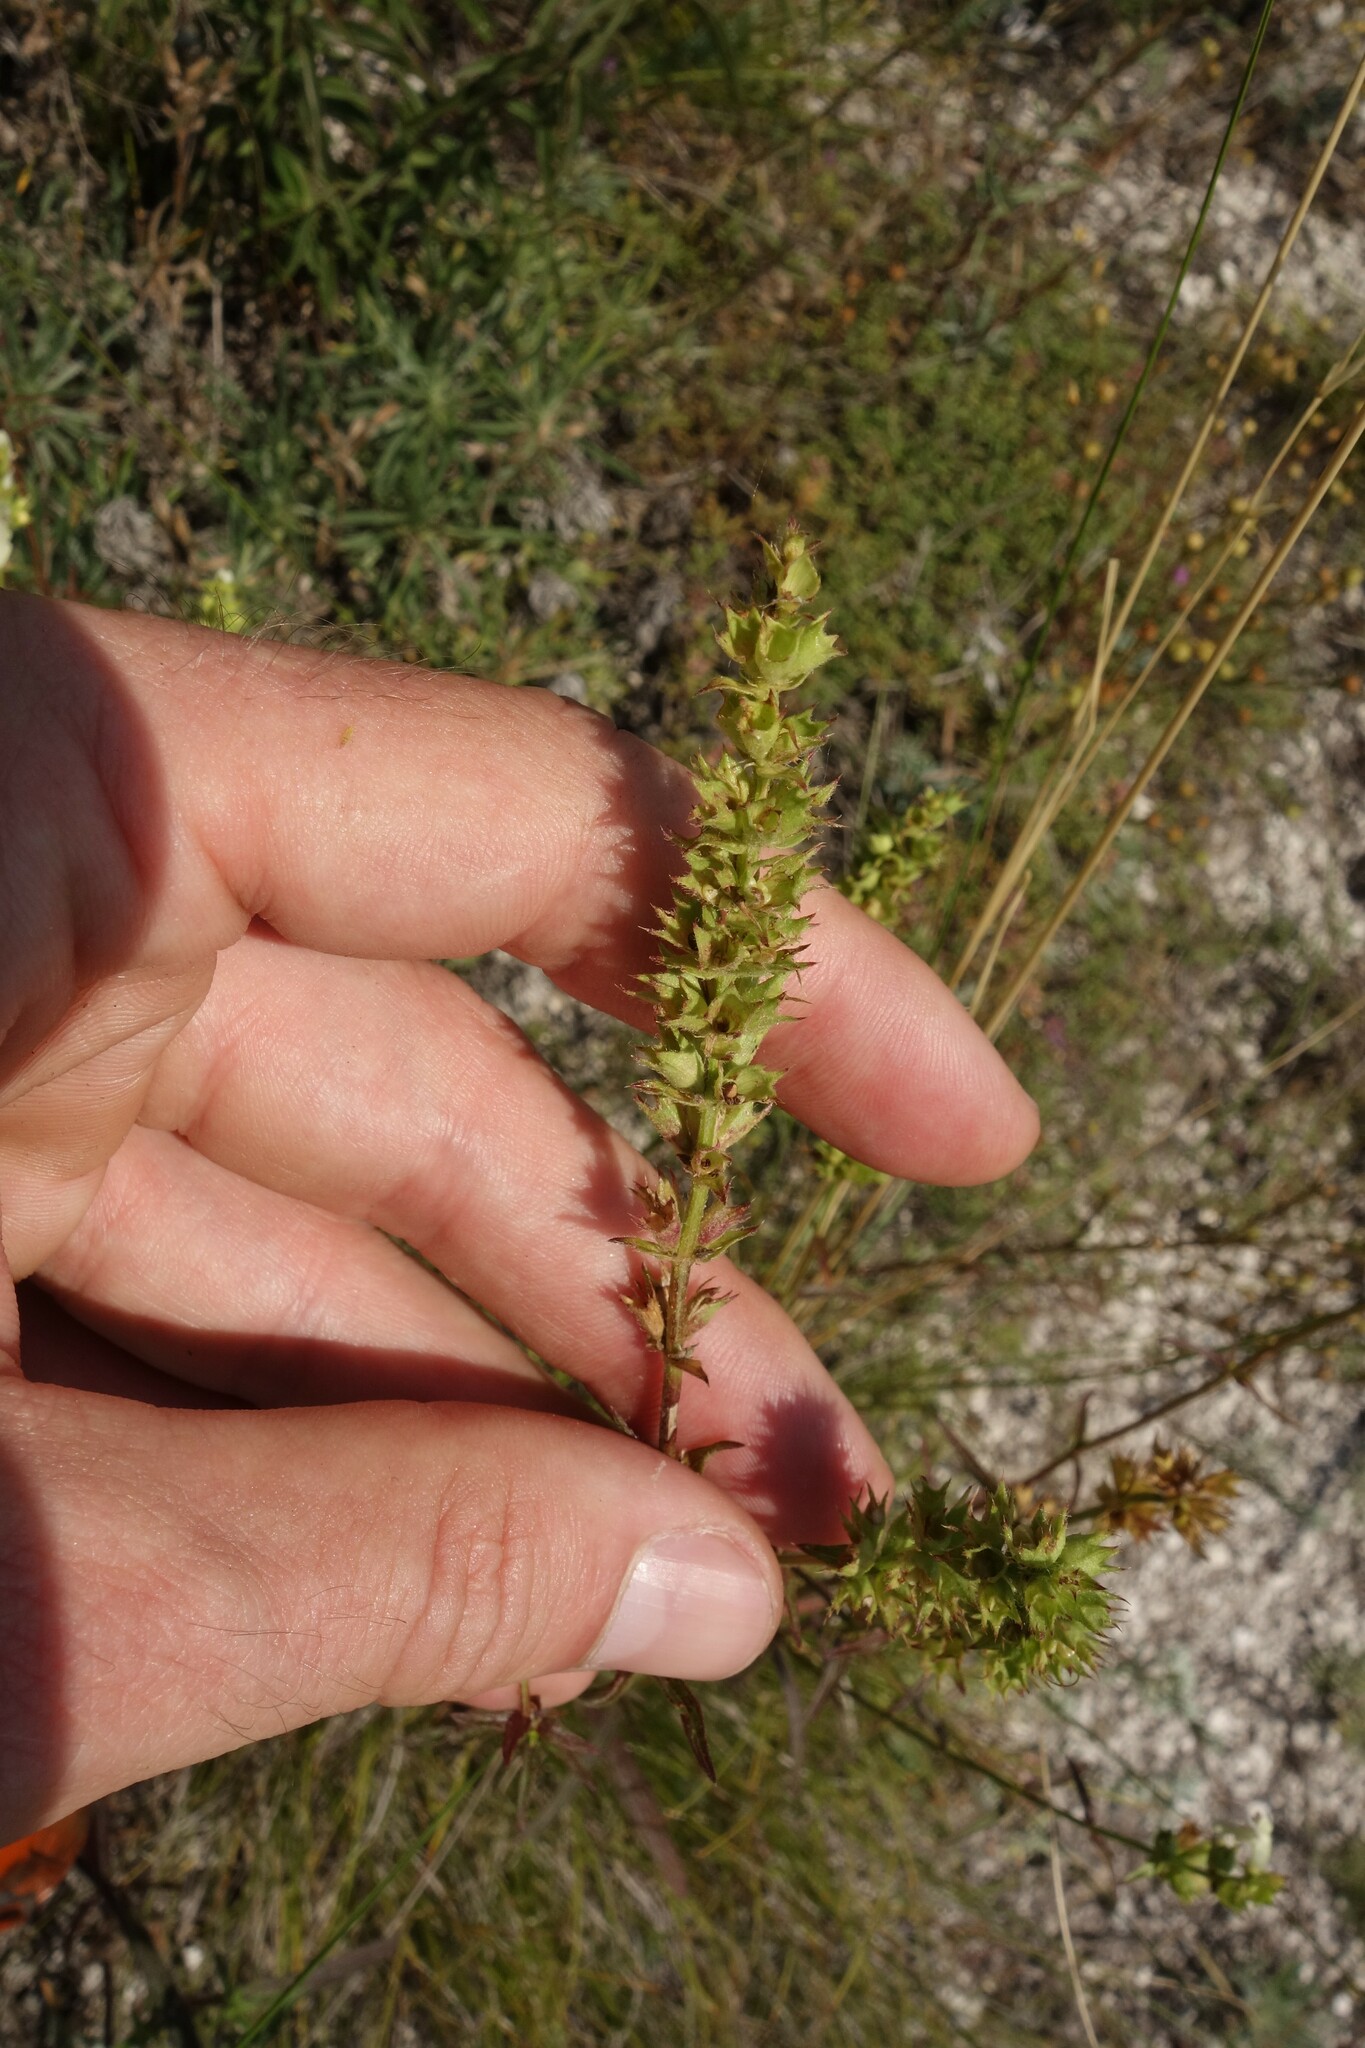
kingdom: Plantae
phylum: Tracheophyta
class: Magnoliopsida
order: Lamiales
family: Lamiaceae
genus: Stachys
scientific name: Stachys recta
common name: Perennial yellow-woundwort
